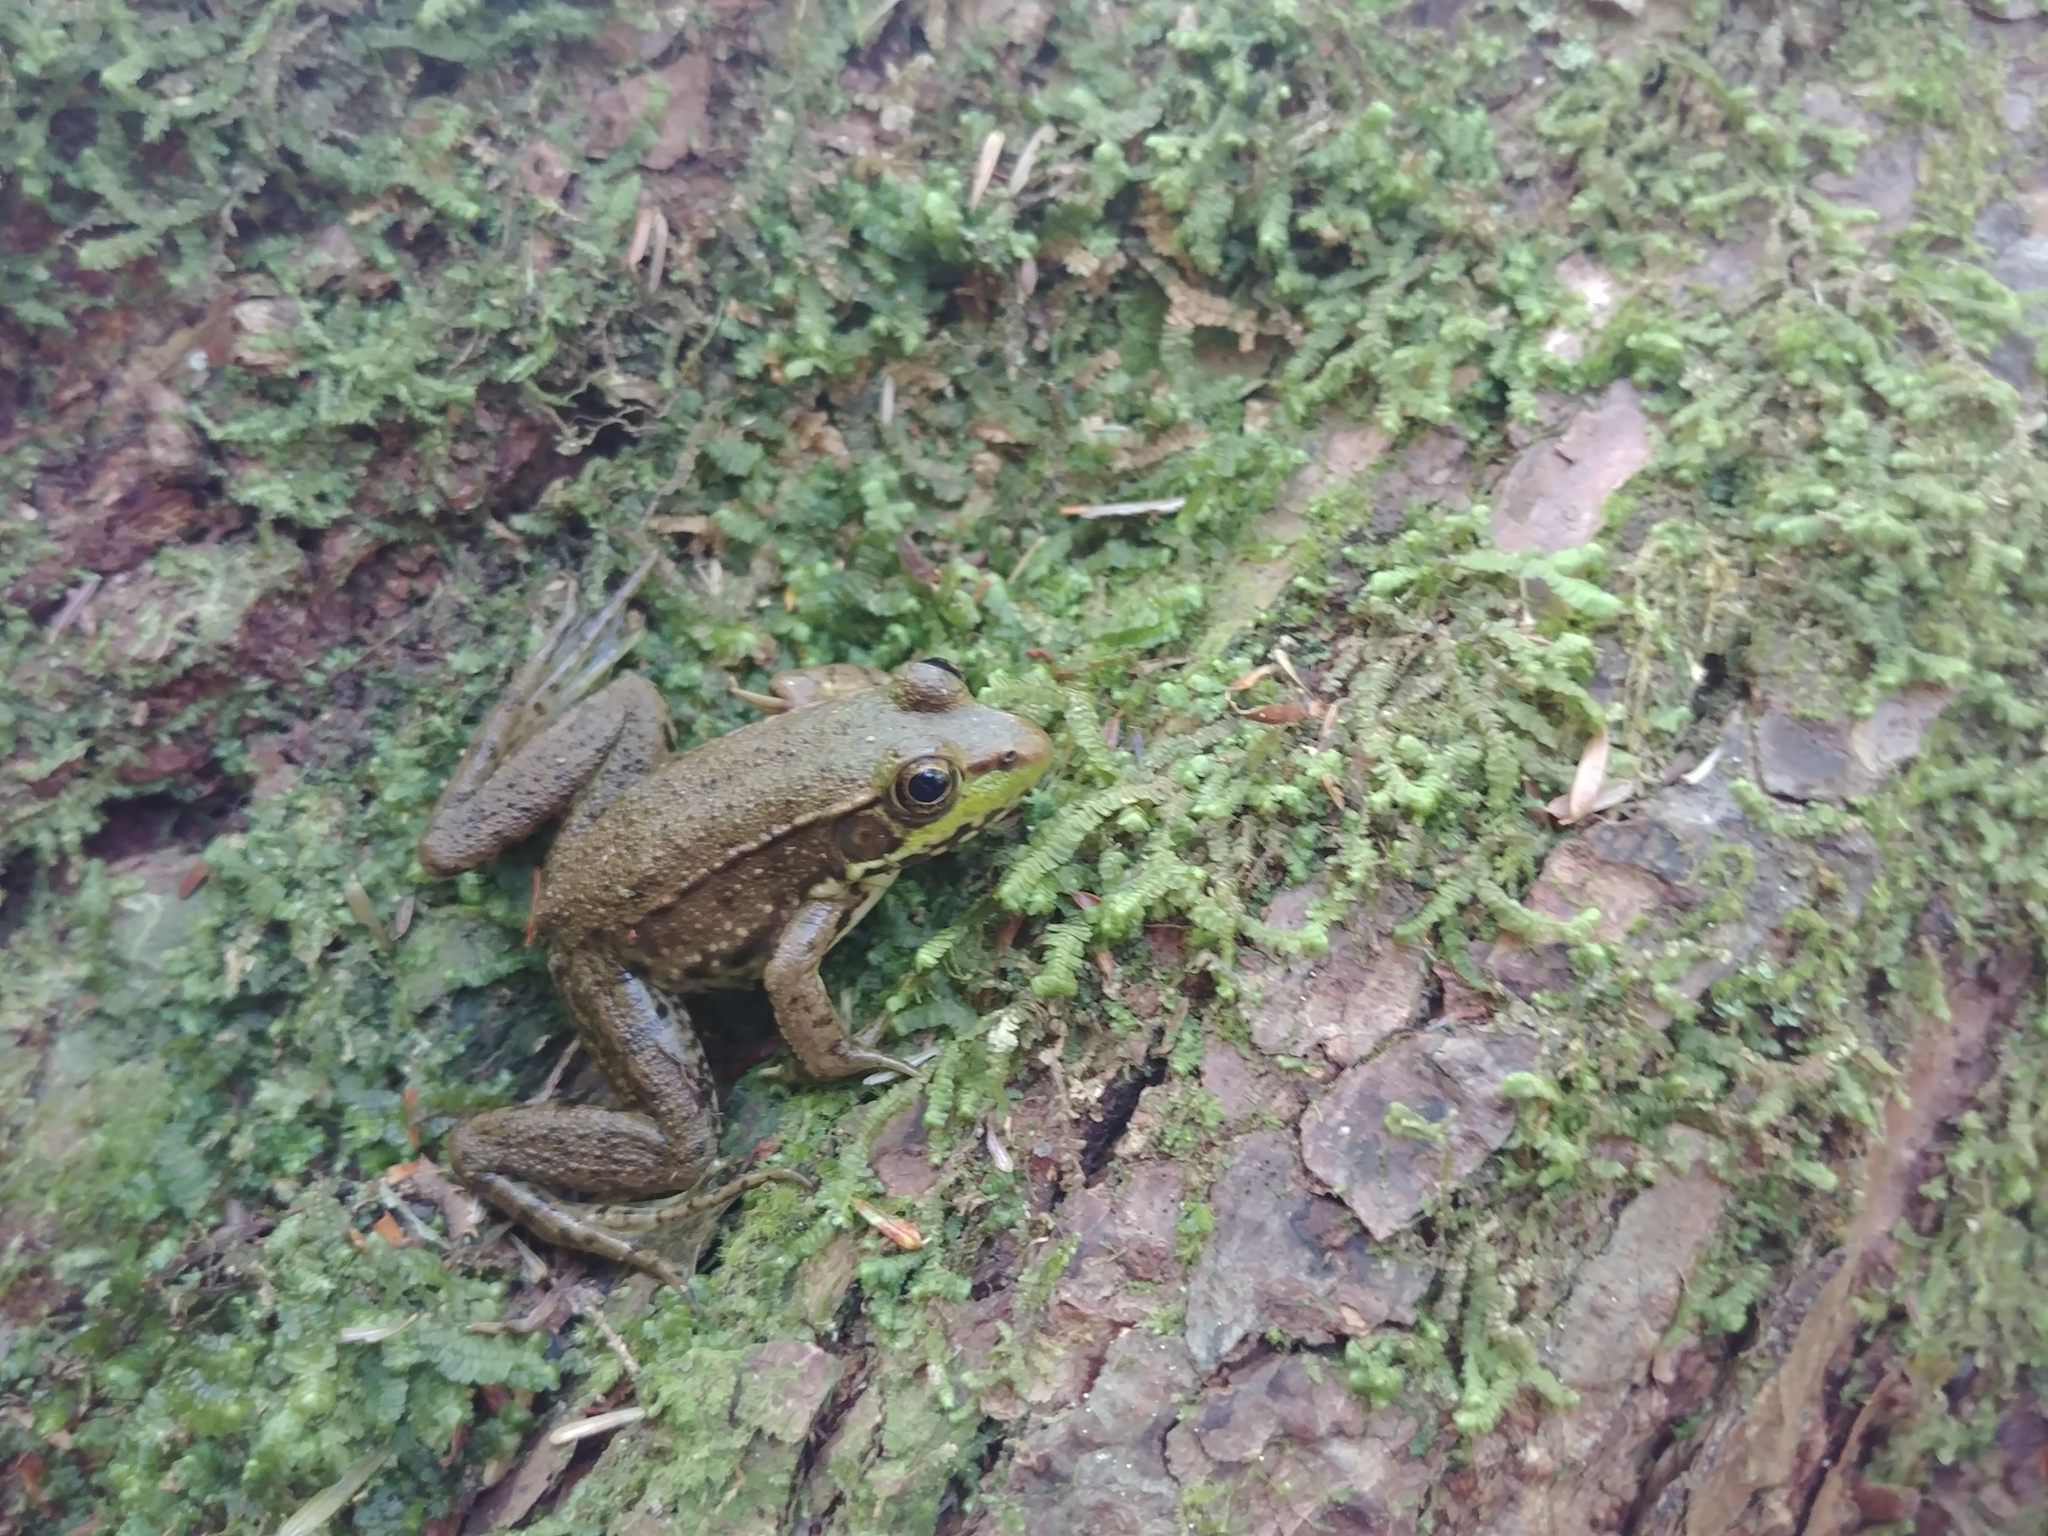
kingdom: Animalia
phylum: Chordata
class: Amphibia
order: Anura
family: Ranidae
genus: Lithobates
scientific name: Lithobates clamitans
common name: Green frog
